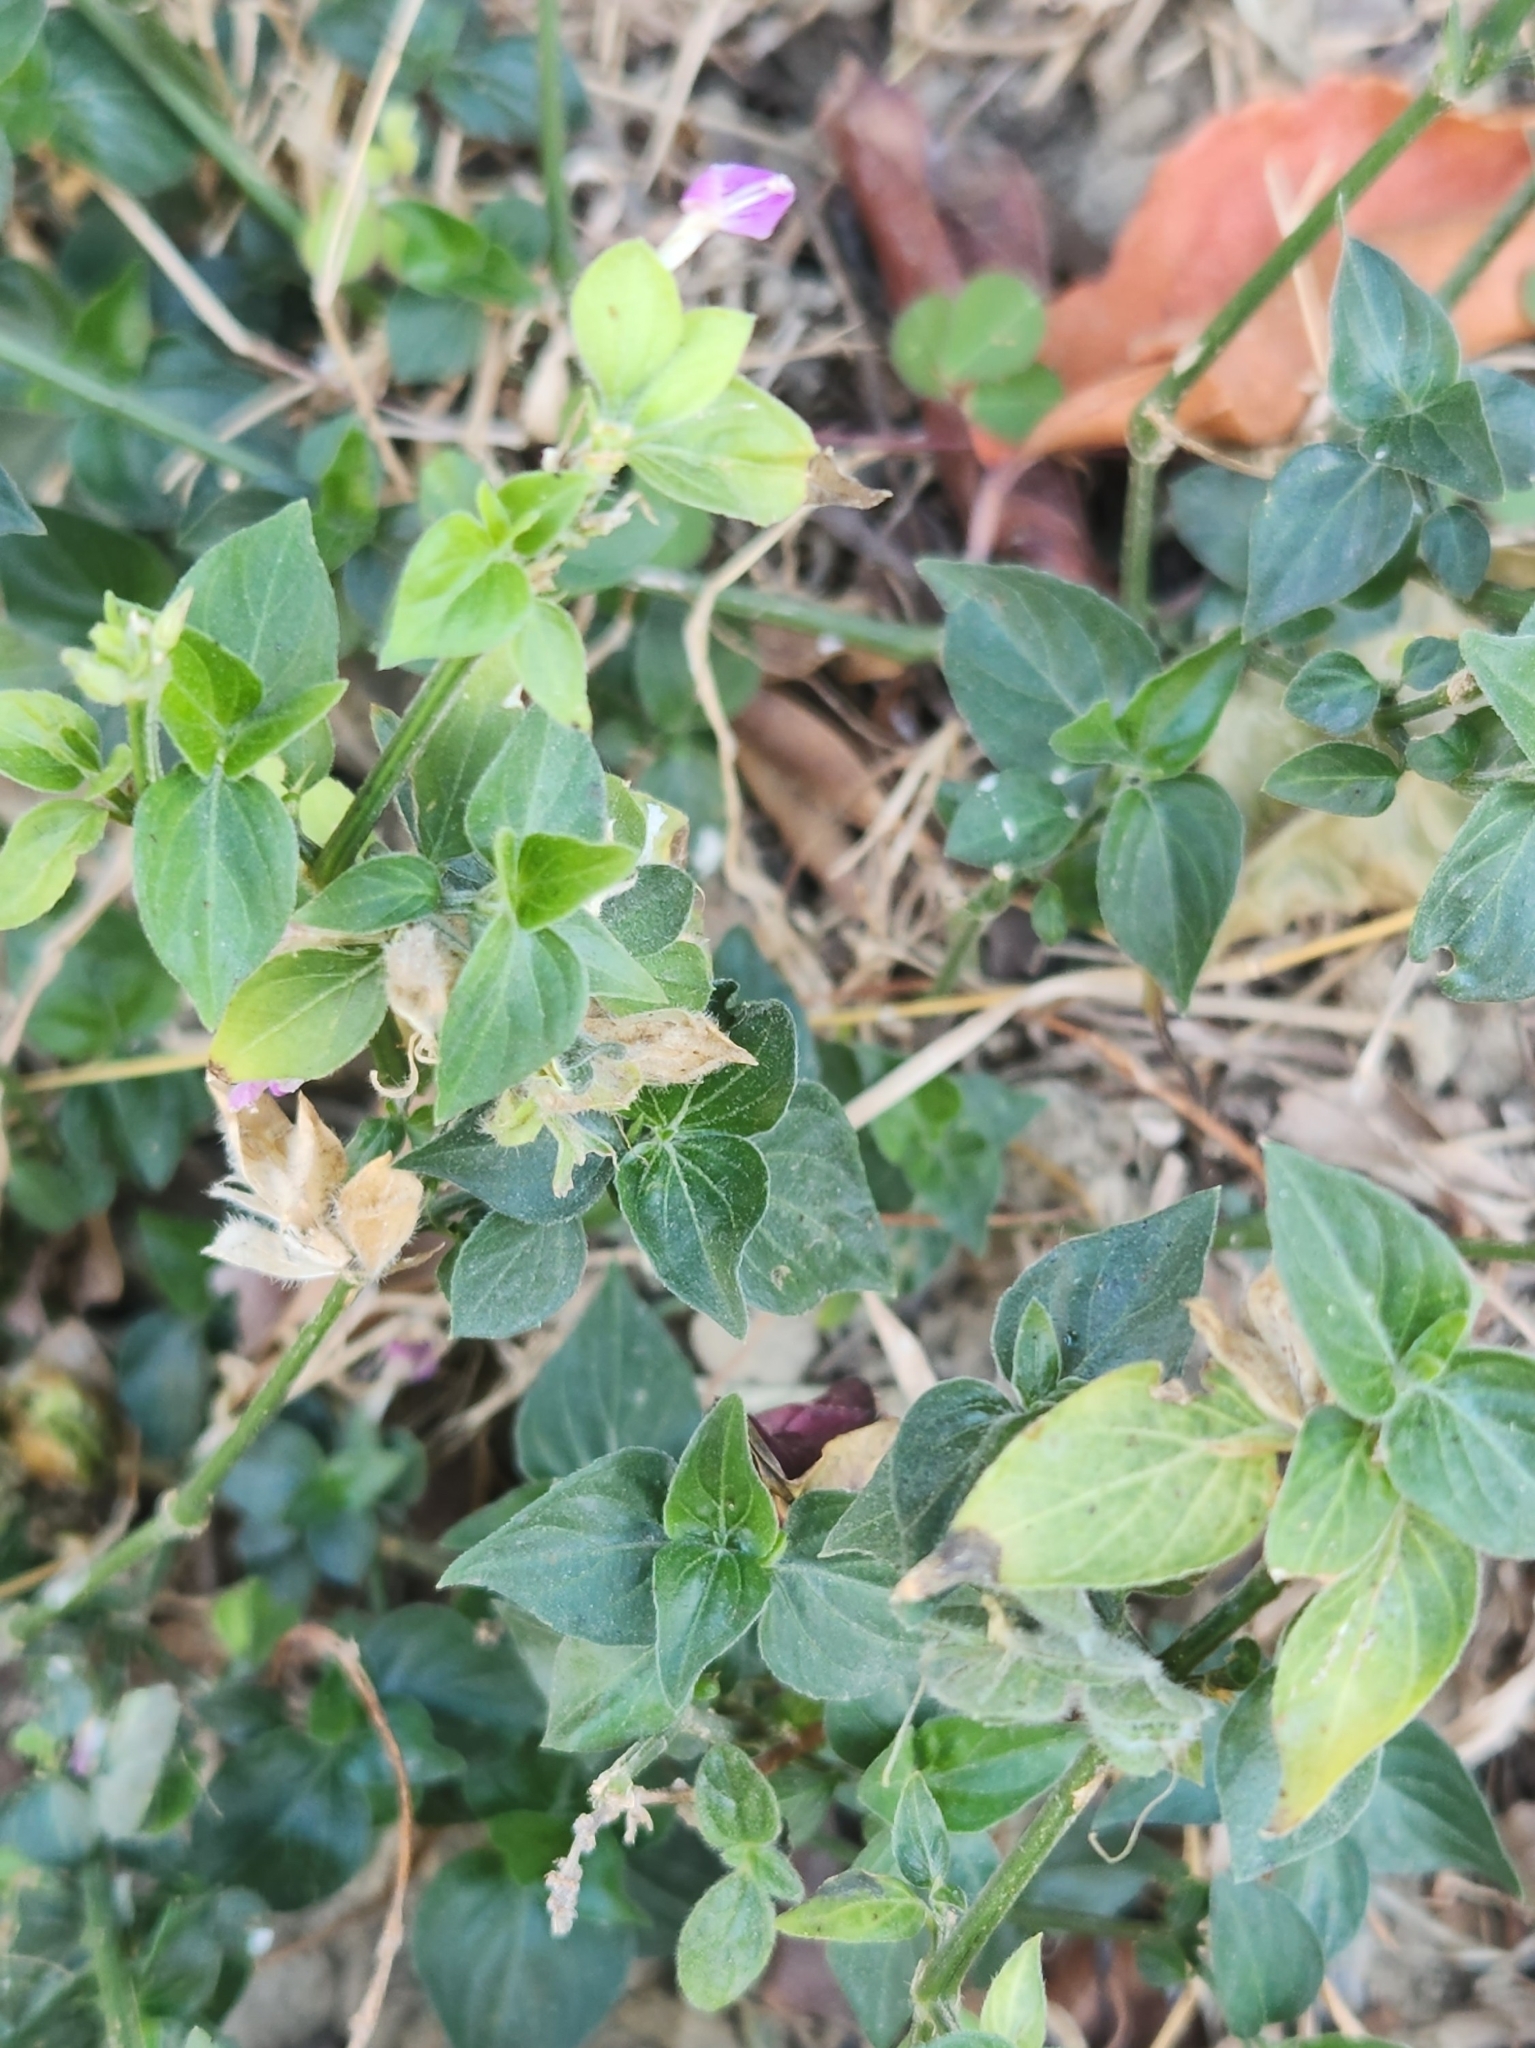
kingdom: Plantae
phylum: Tracheophyta
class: Magnoliopsida
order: Lamiales
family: Acanthaceae
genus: Dicliptera
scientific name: Dicliptera chinensis
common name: Chinese foldwing
